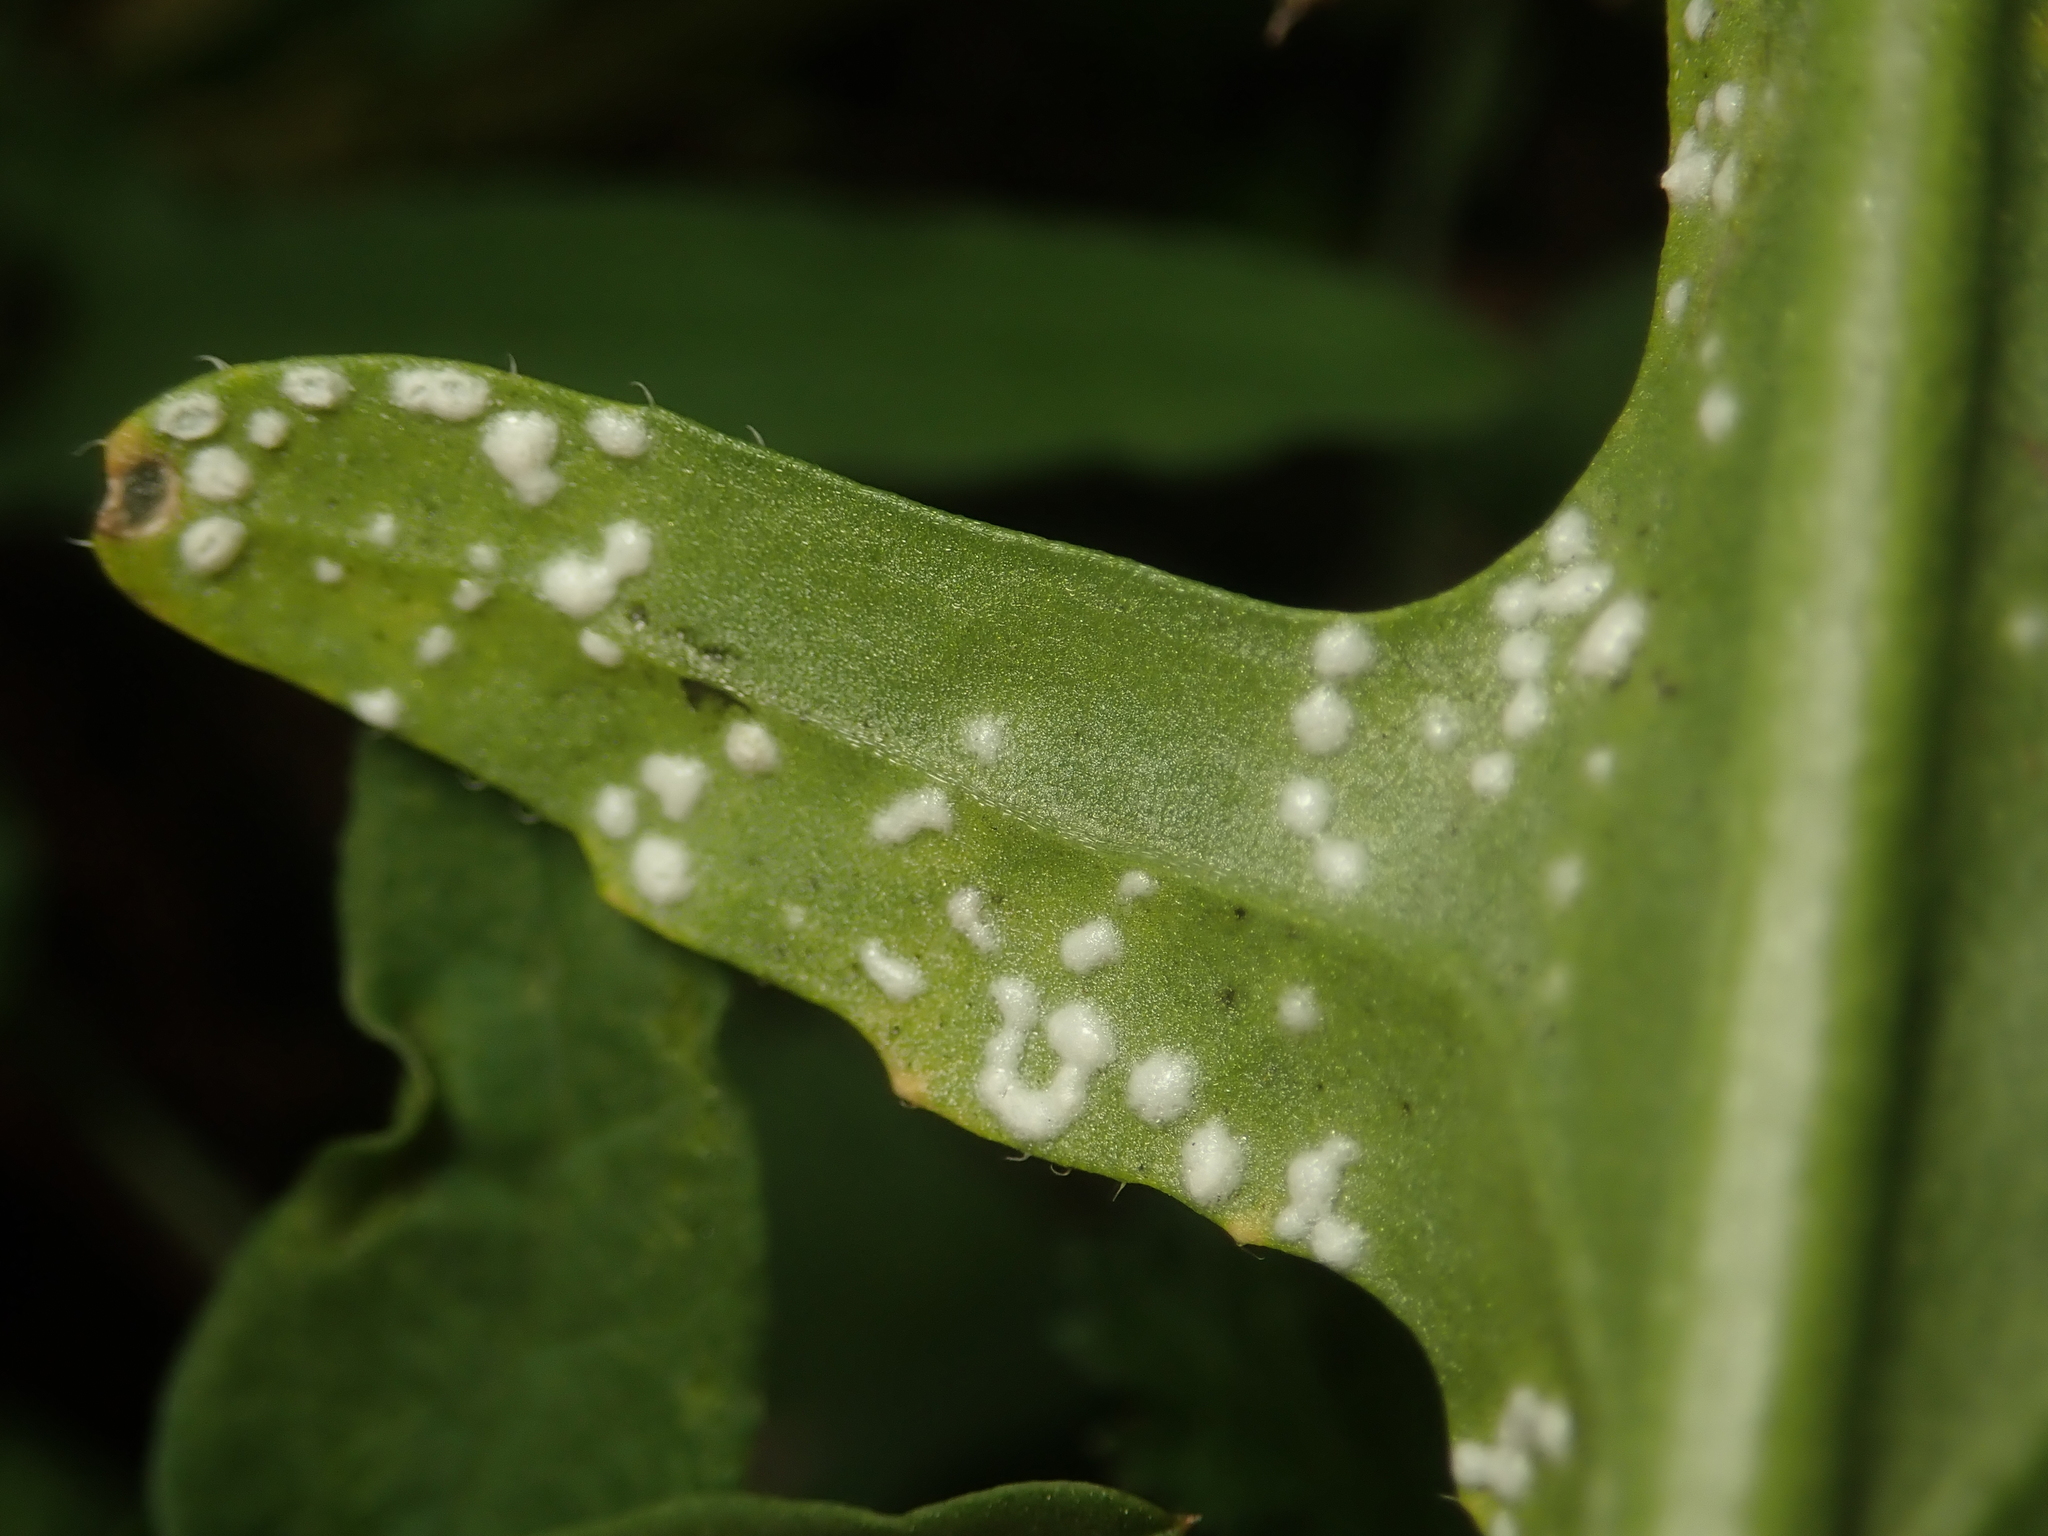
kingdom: Chromista
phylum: Oomycota
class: Peronosporea
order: Albuginales
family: Albuginaceae
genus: Albugo
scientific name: Albugo candida
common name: Crucifer white blister
